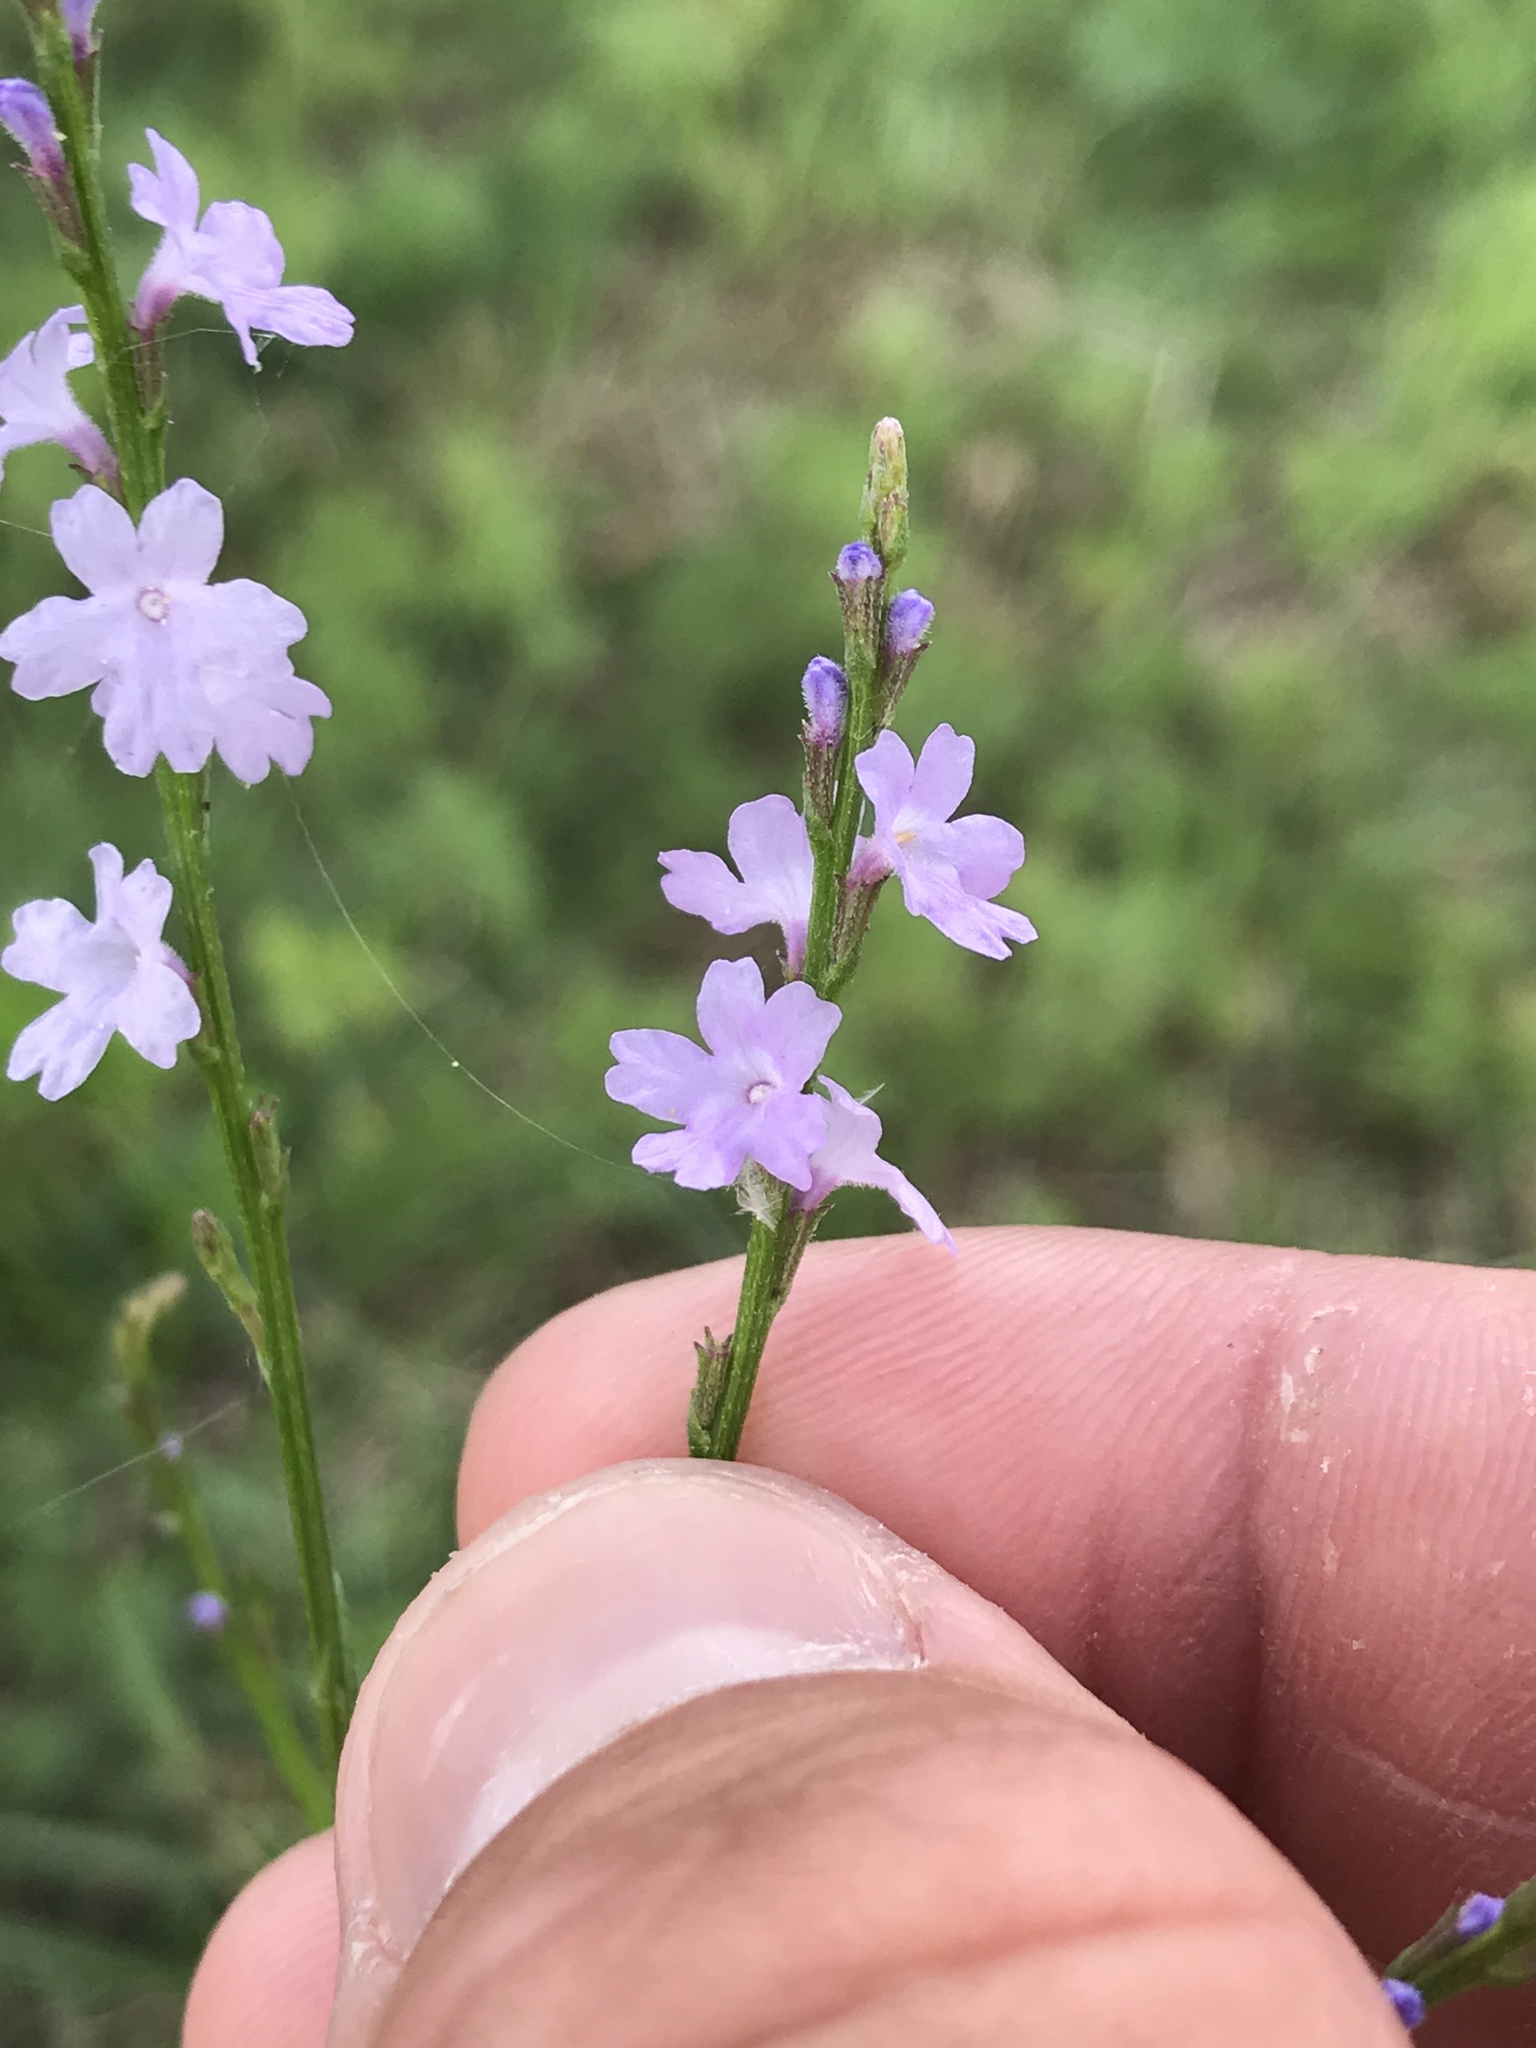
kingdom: Plantae
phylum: Tracheophyta
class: Magnoliopsida
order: Lamiales
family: Verbenaceae
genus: Verbena
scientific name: Verbena halei
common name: Texas vervain
